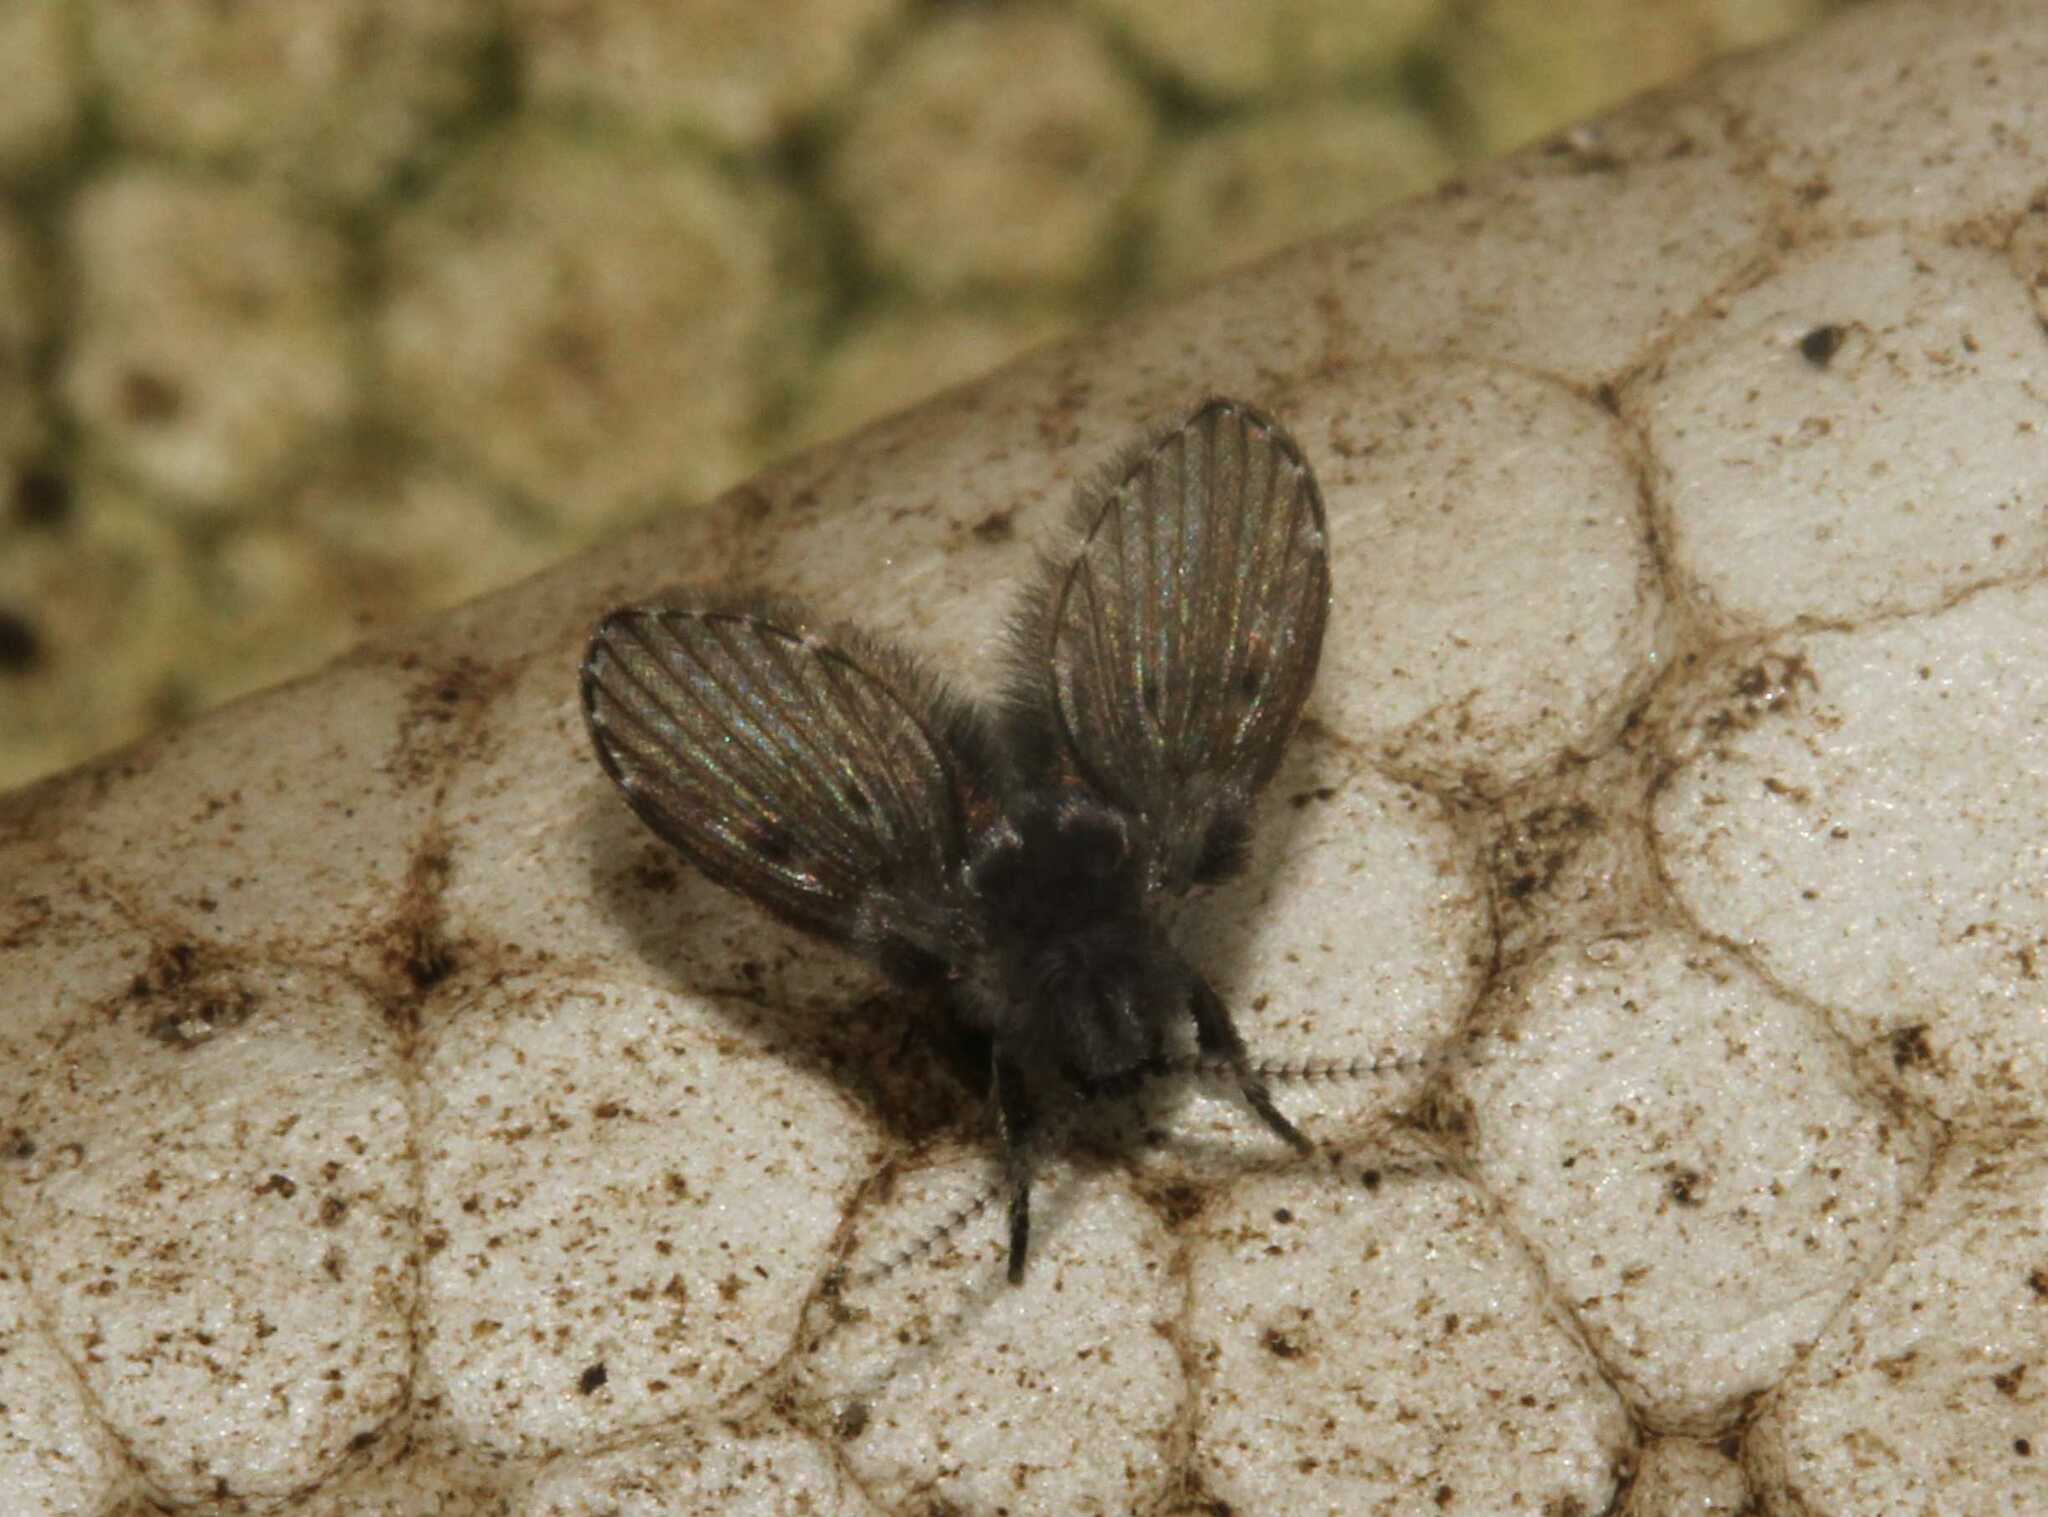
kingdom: Animalia
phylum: Arthropoda
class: Insecta
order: Diptera
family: Psychodidae
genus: Clogmia
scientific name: Clogmia albipunctatus
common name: White-spotted moth fly
